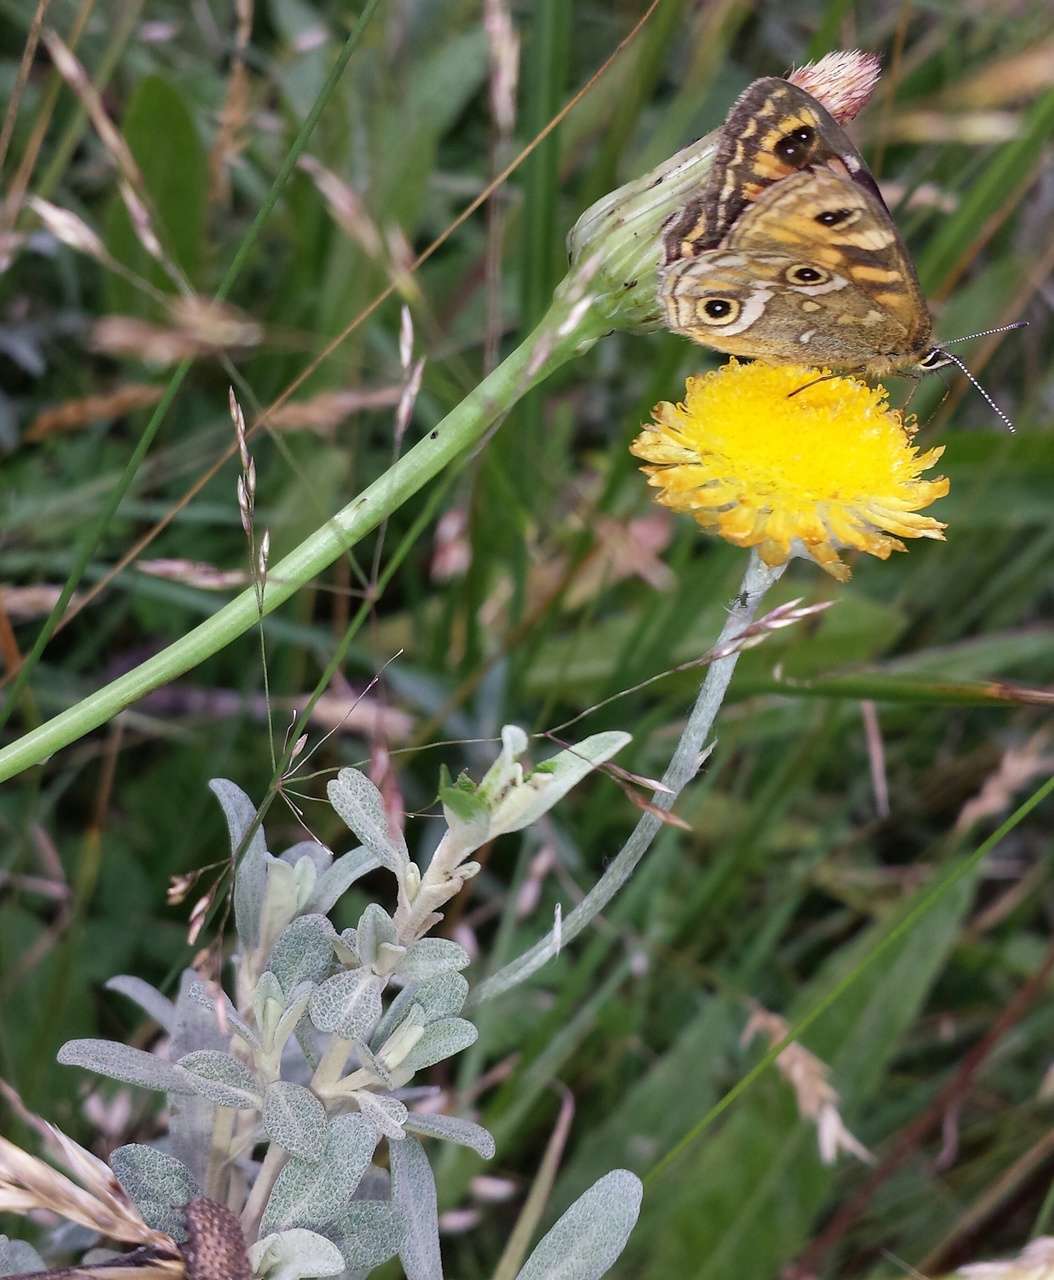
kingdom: Animalia
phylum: Arthropoda
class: Insecta
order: Lepidoptera
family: Nymphalidae
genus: Oreixenica
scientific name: Oreixenica correae
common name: Correa brown
